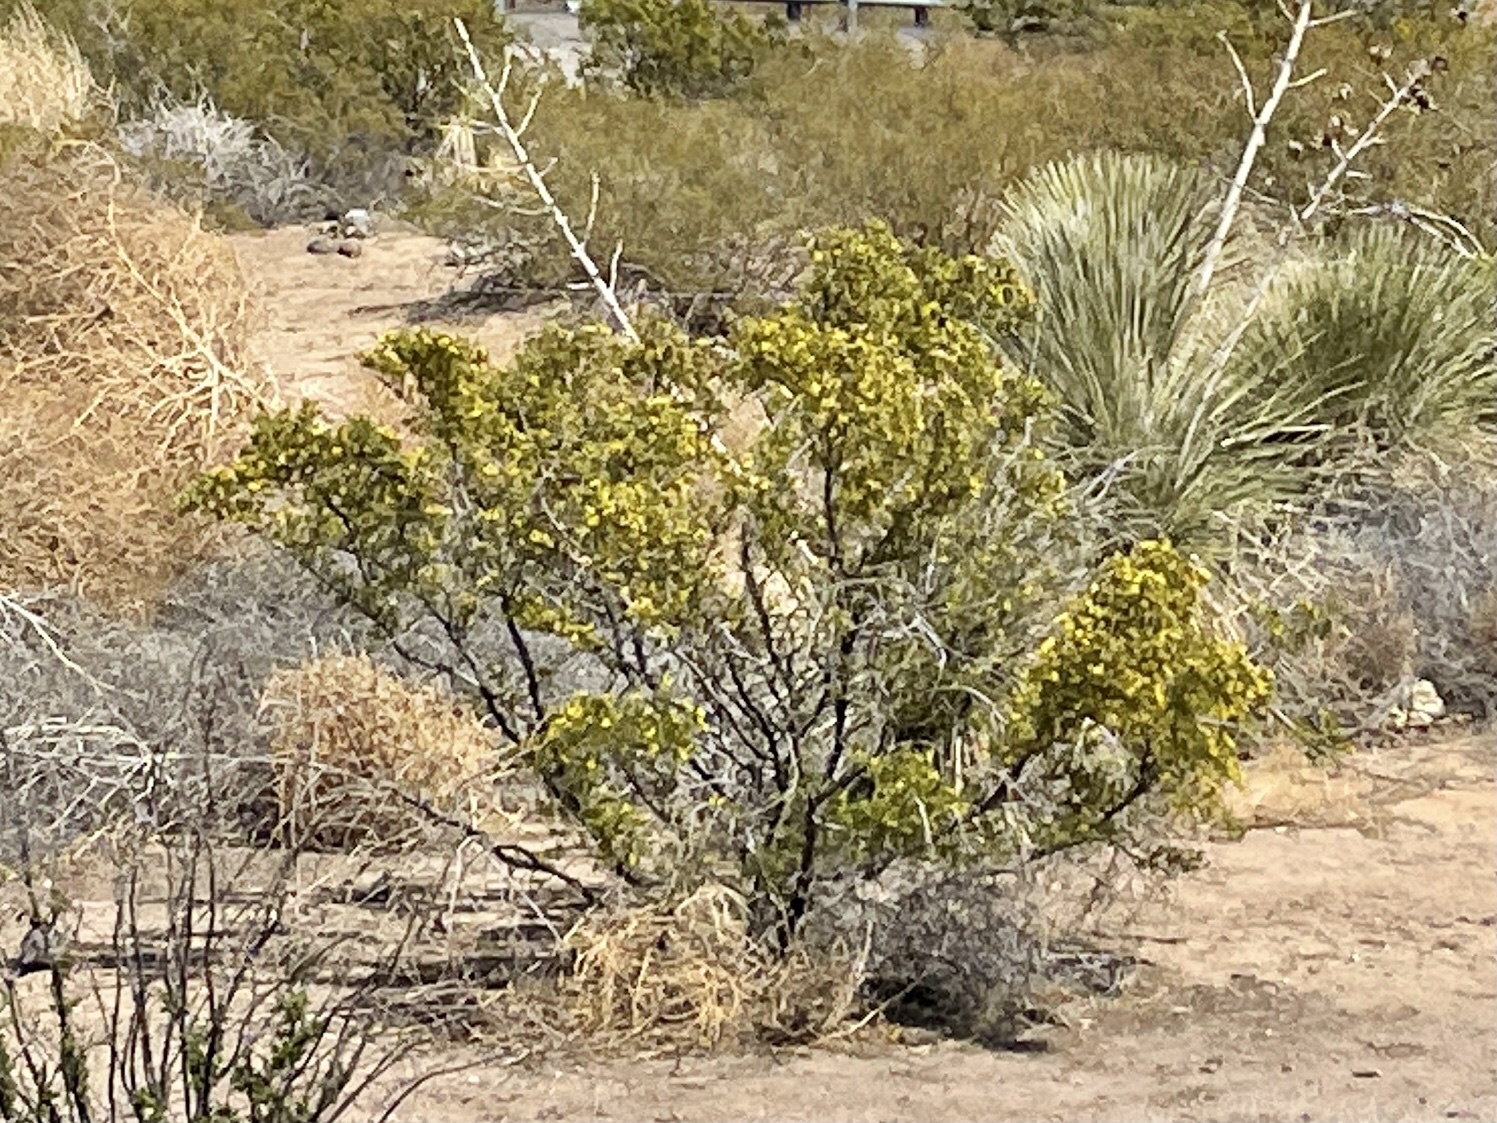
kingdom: Plantae
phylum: Tracheophyta
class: Magnoliopsida
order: Zygophyllales
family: Zygophyllaceae
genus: Larrea
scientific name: Larrea tridentata
